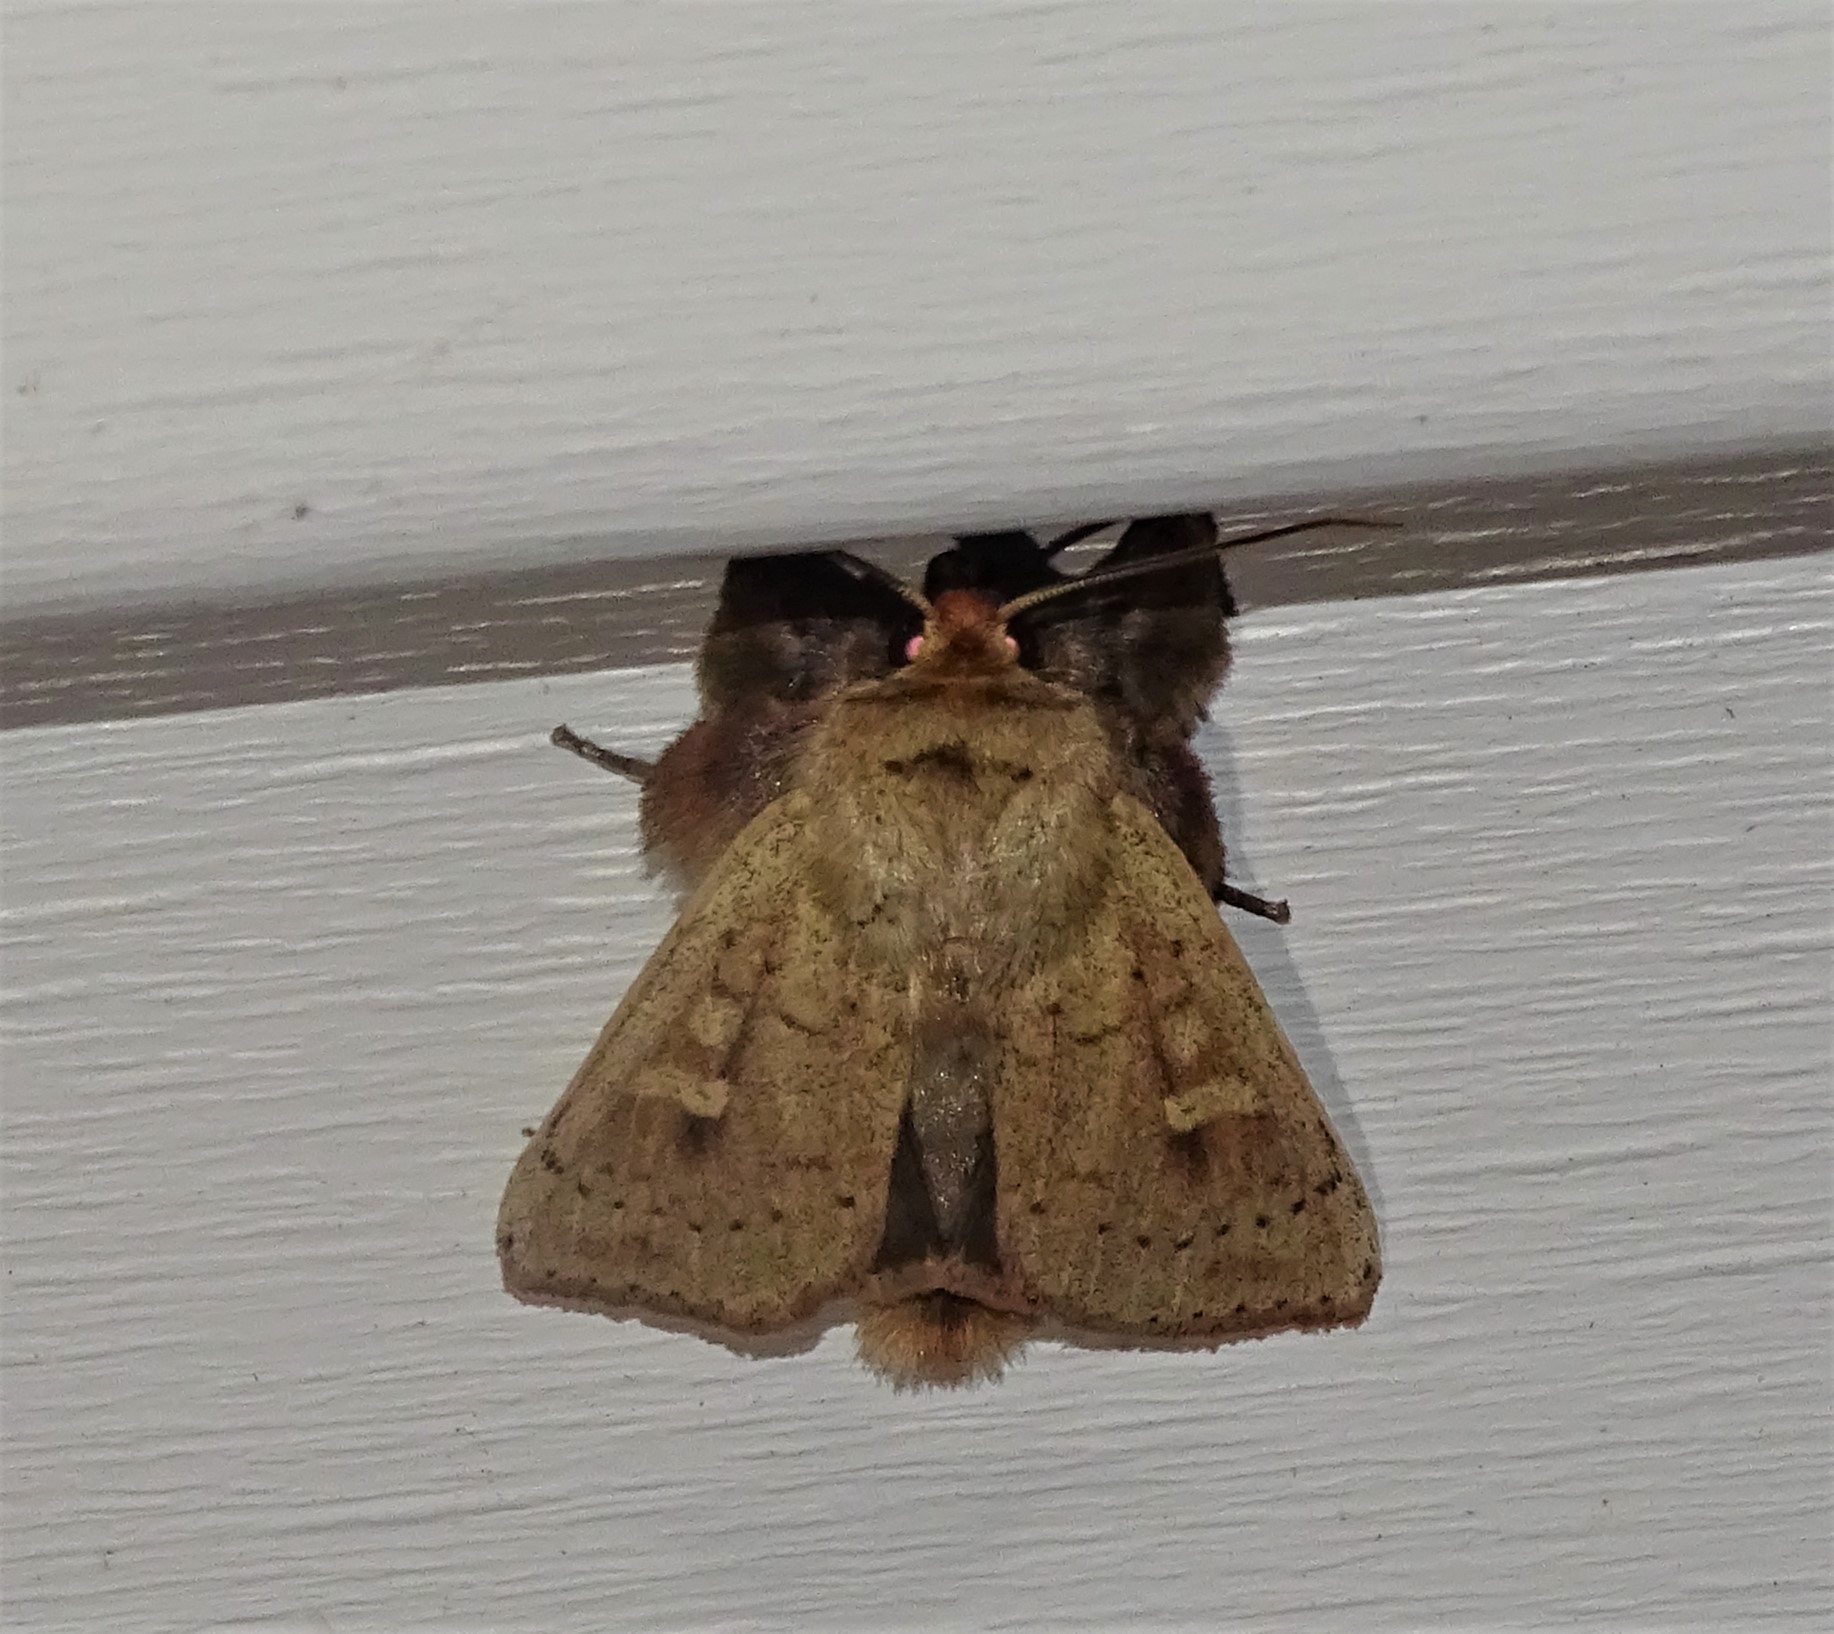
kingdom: Animalia
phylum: Arthropoda
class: Insecta
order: Lepidoptera
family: Noctuidae
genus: Leucania
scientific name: Leucania pseudargyria
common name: False wainscot
